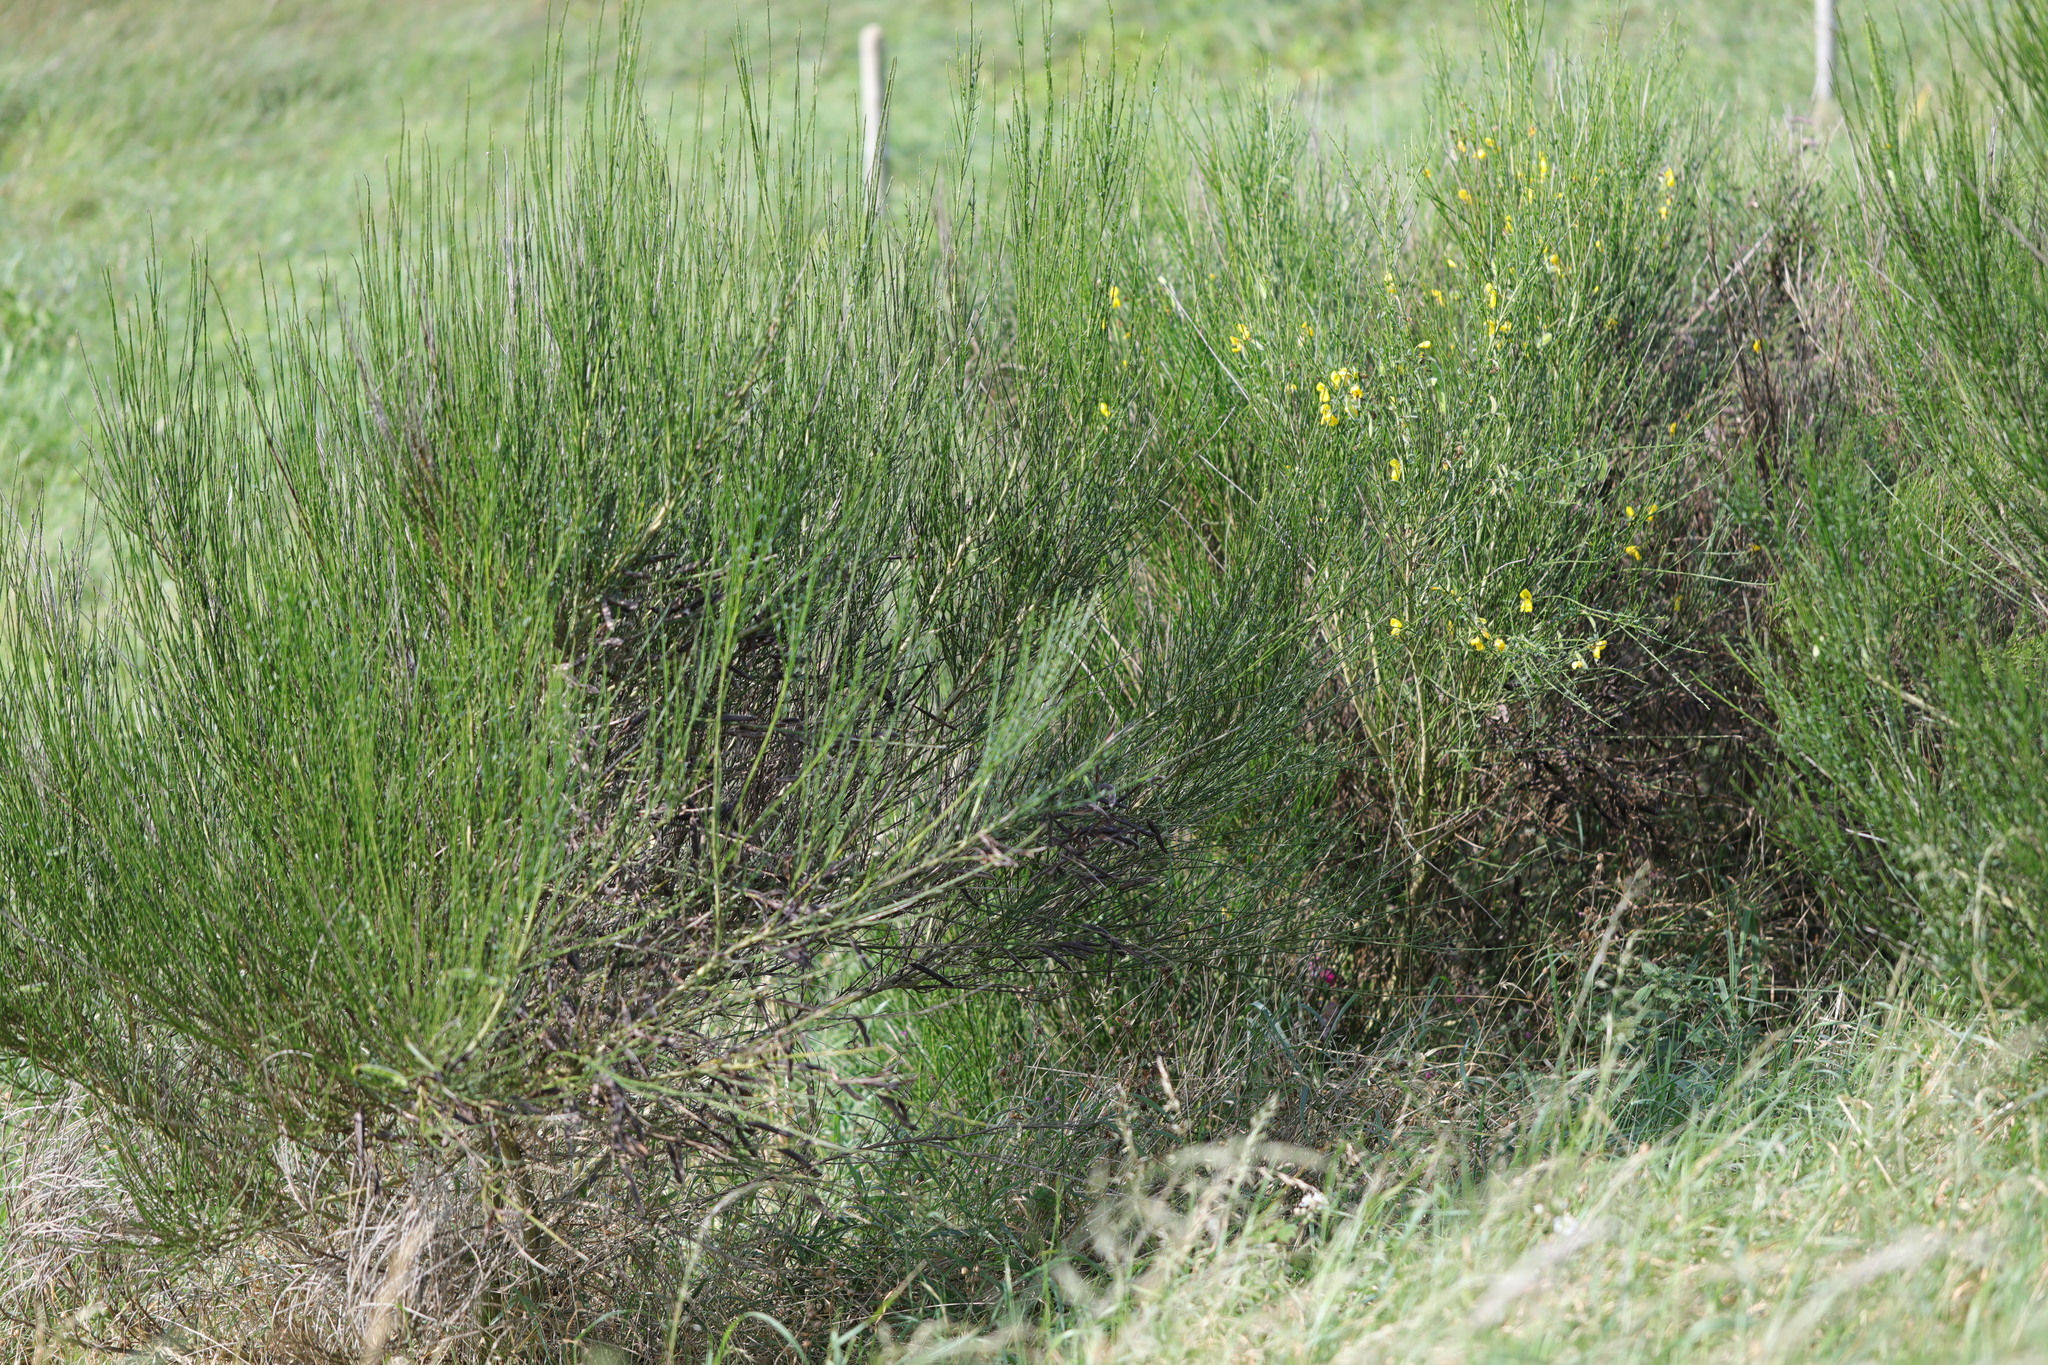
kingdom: Plantae
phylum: Tracheophyta
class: Magnoliopsida
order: Fabales
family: Fabaceae
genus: Cytisus
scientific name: Cytisus scoparius
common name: Scotch broom
